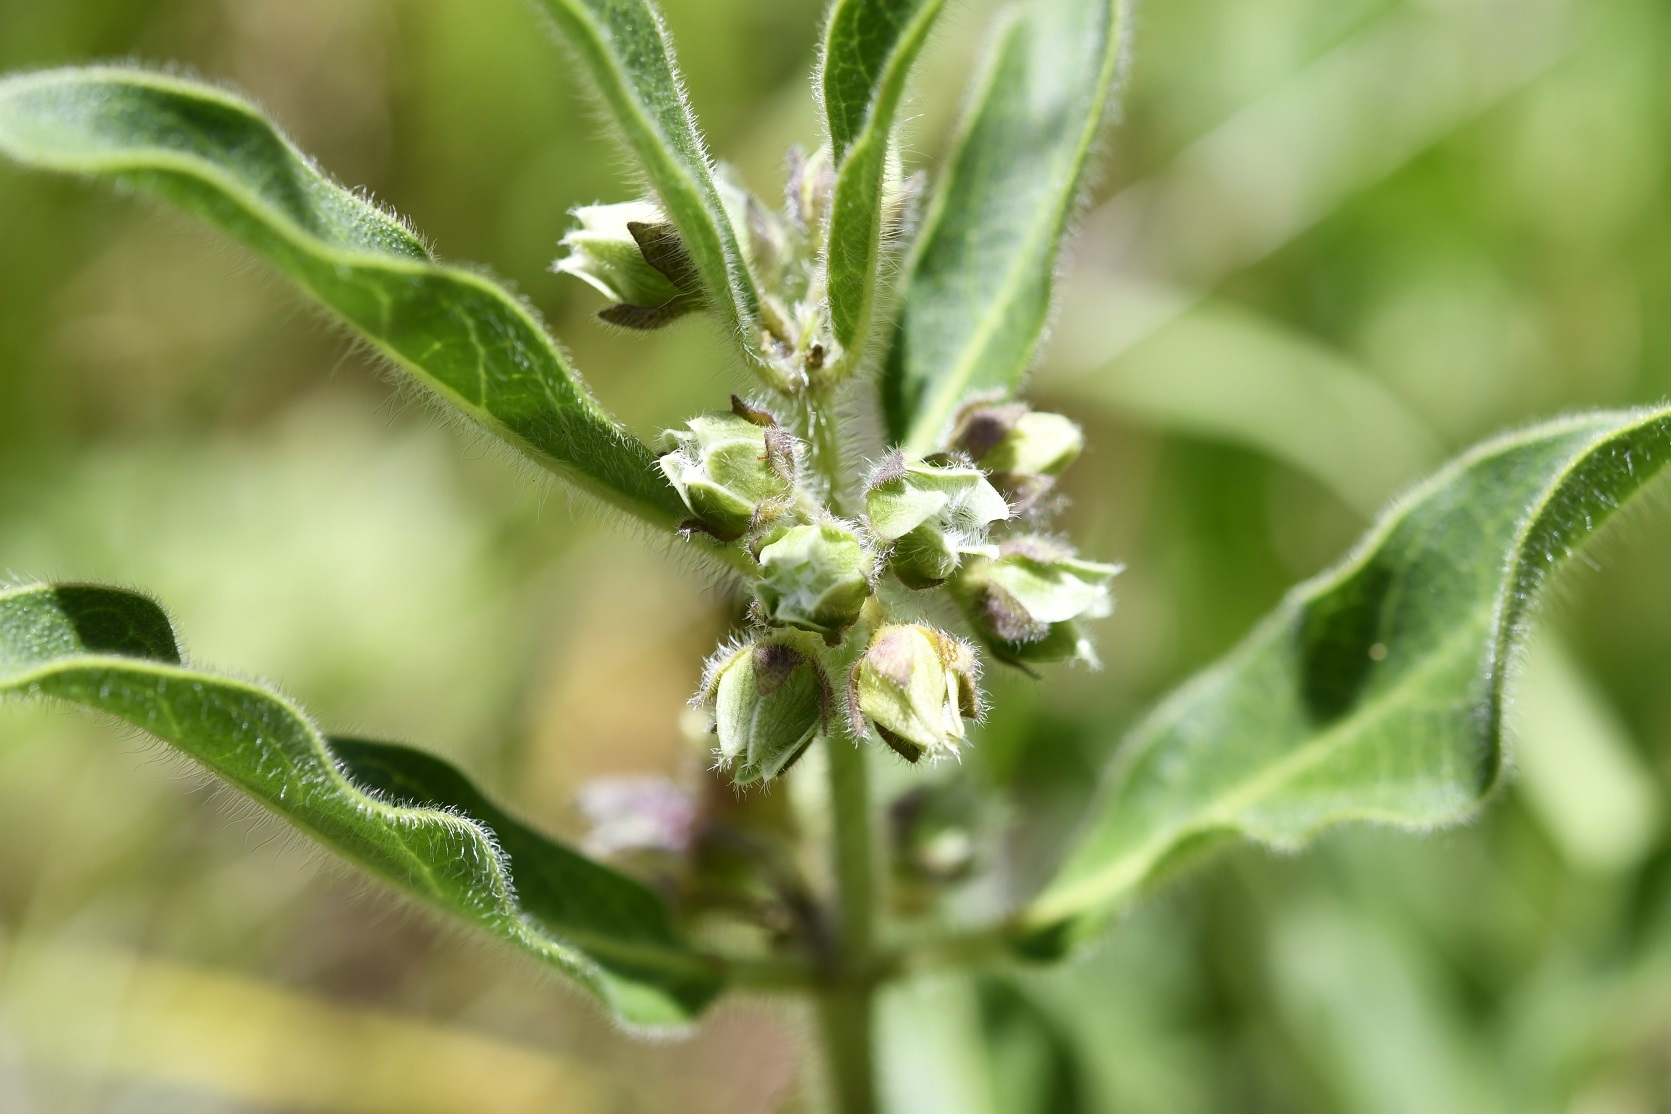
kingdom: Plantae
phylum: Tracheophyta
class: Magnoliopsida
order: Gentianales
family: Apocynaceae
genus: Pherotrichis
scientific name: Pherotrichis villosa
